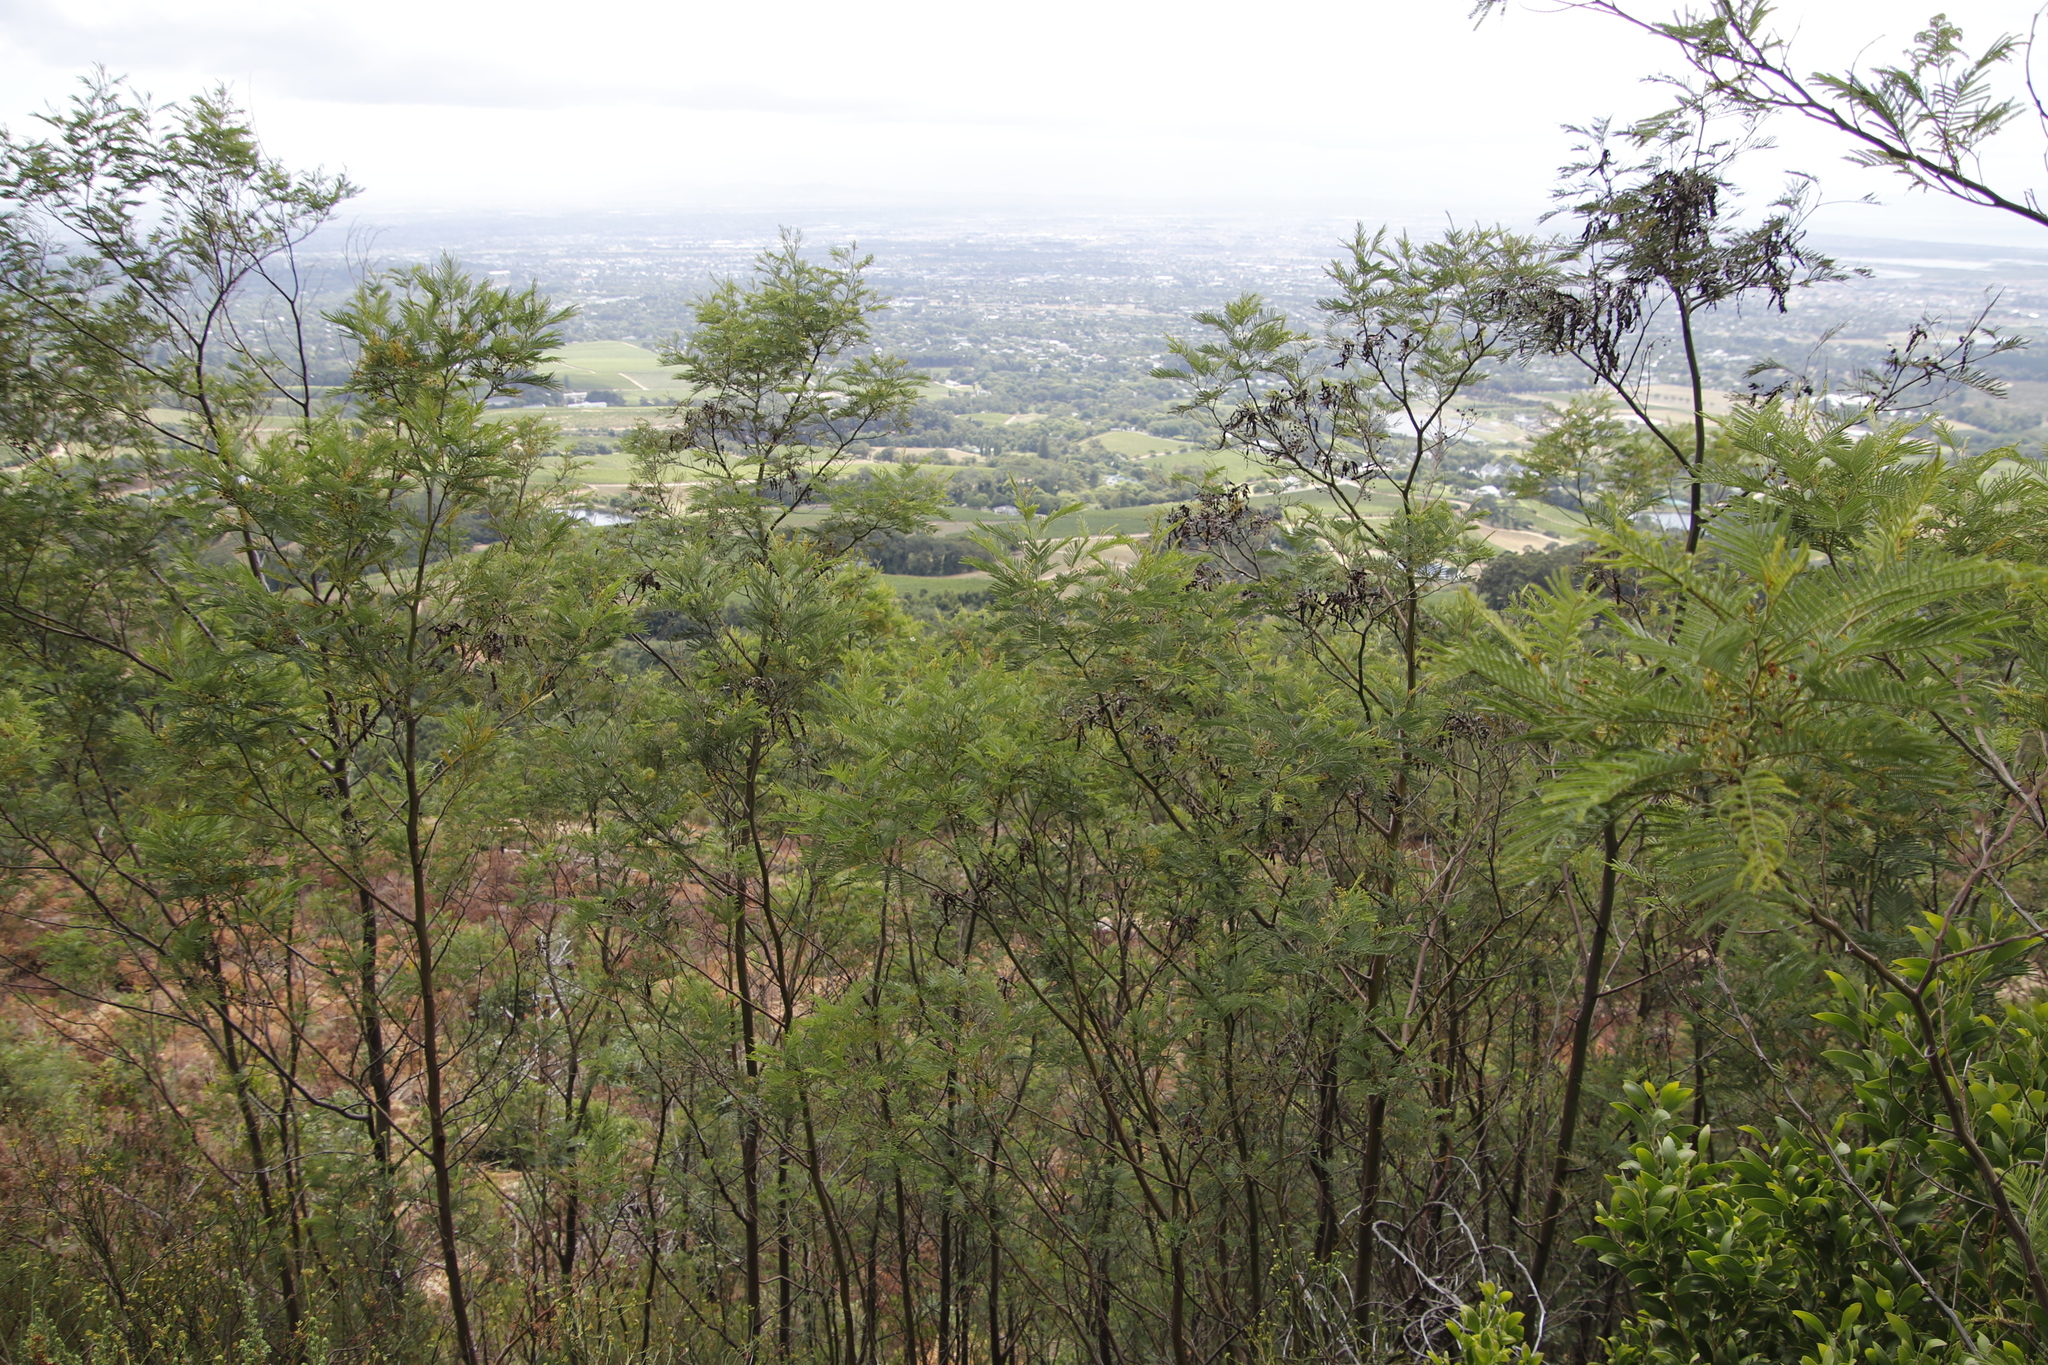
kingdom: Plantae
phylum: Tracheophyta
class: Magnoliopsida
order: Fabales
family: Fabaceae
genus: Acacia
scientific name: Acacia mearnsii
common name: Black wattle
